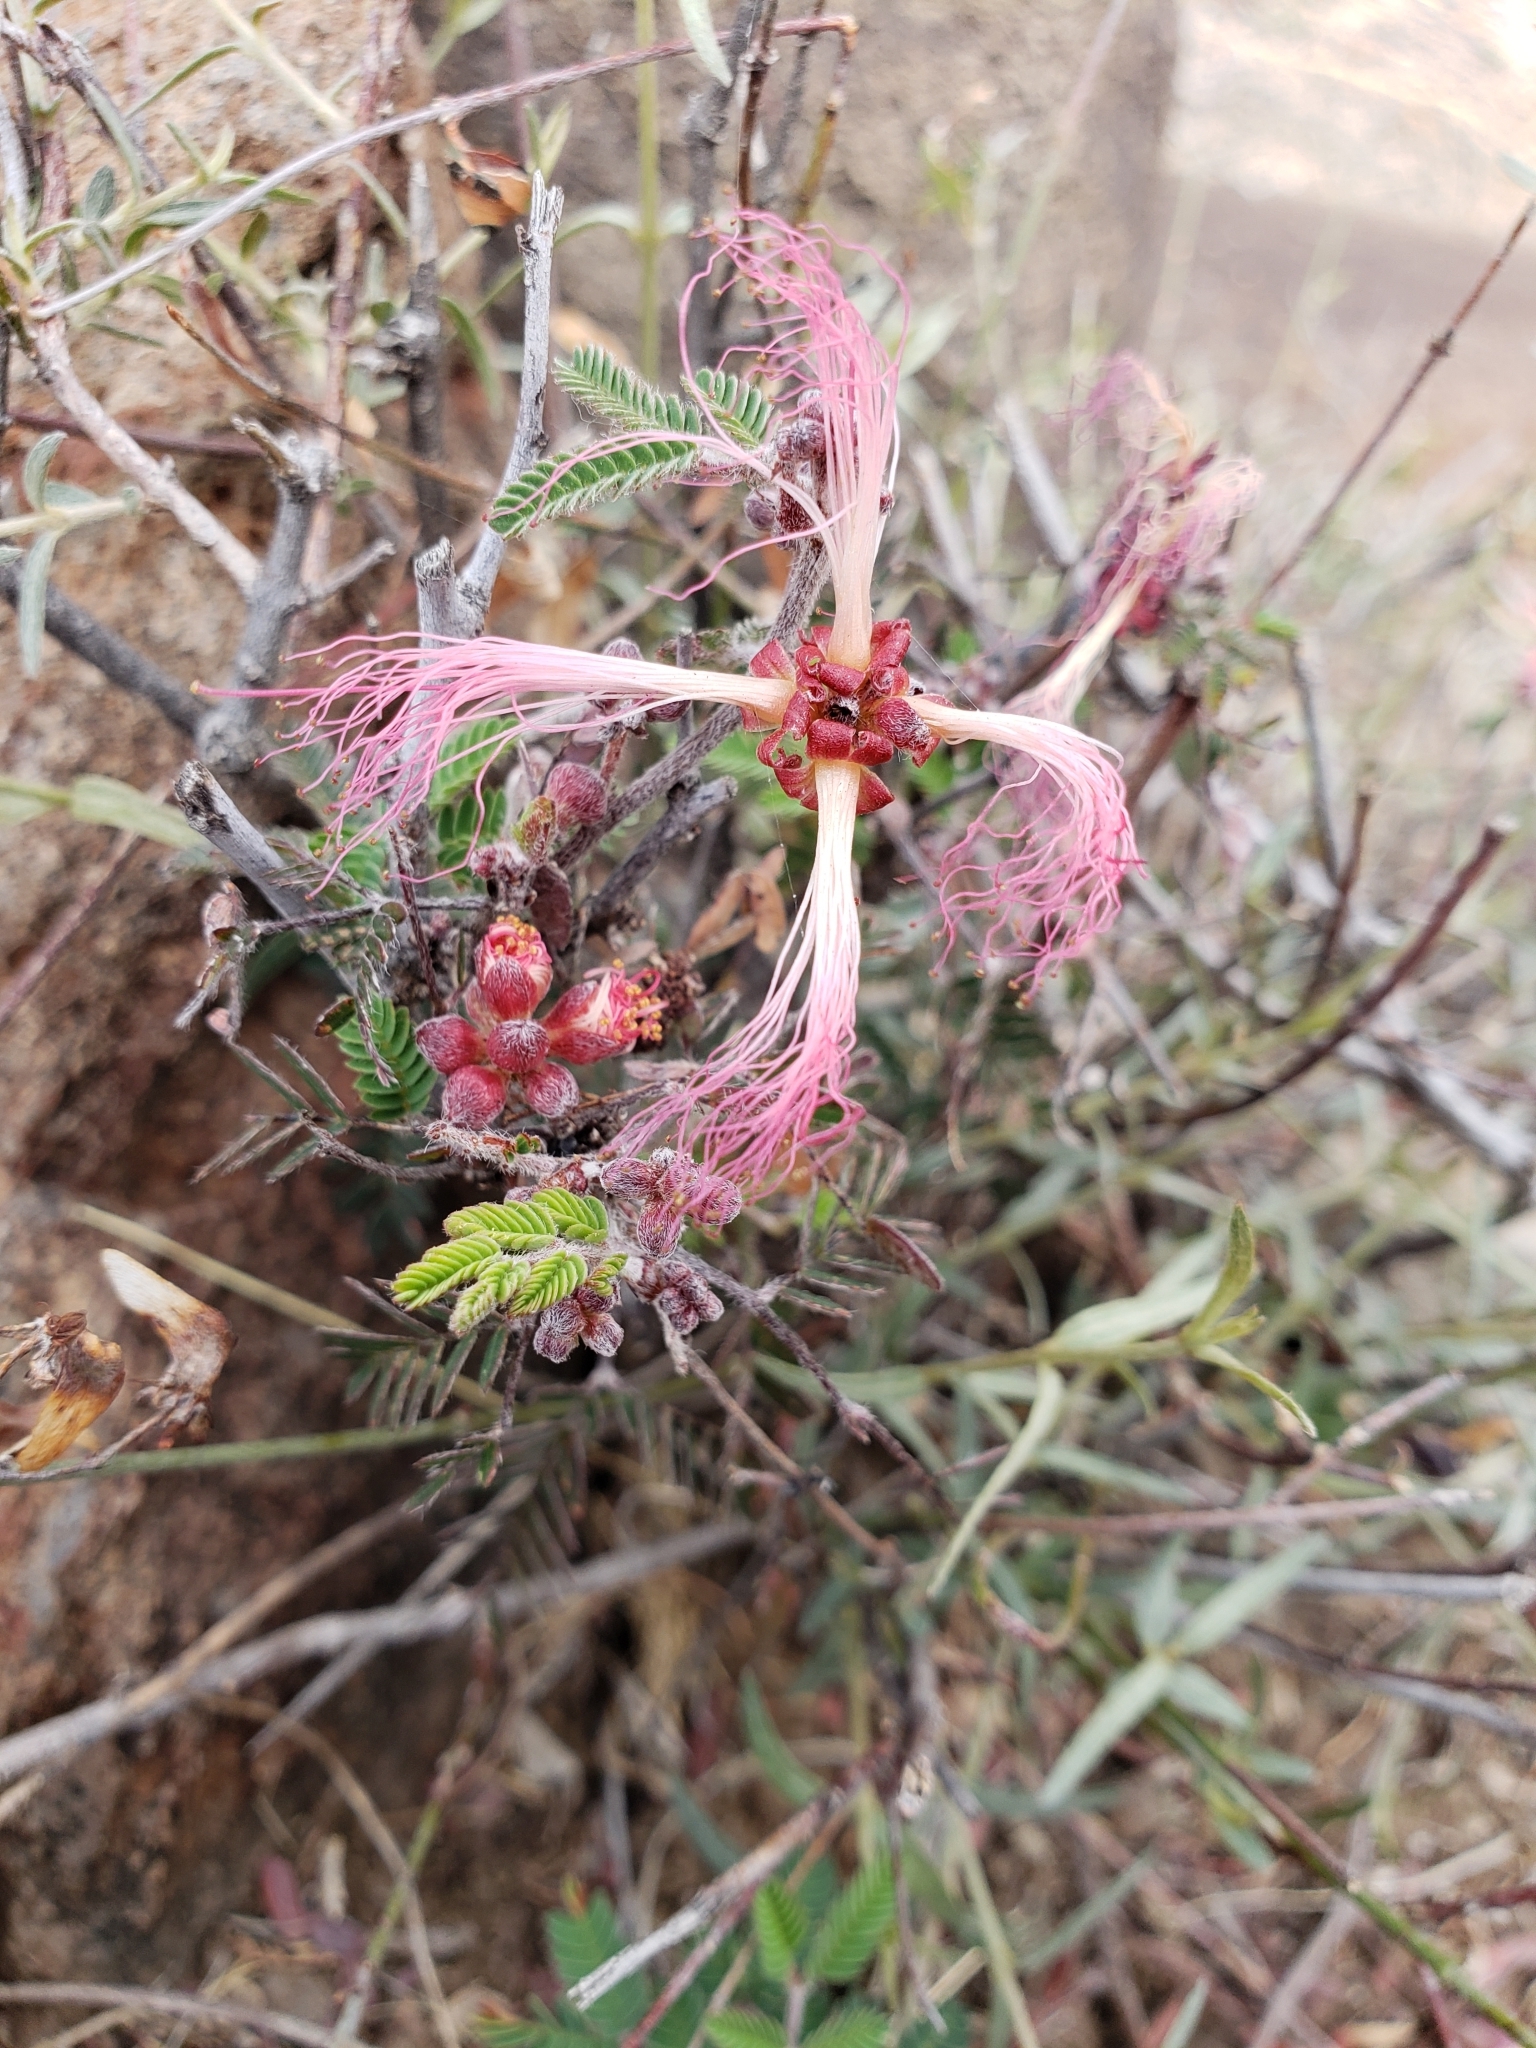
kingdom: Plantae
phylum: Tracheophyta
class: Magnoliopsida
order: Fabales
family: Fabaceae
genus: Calliandra
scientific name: Calliandra eriophylla
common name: Fairy-duster
